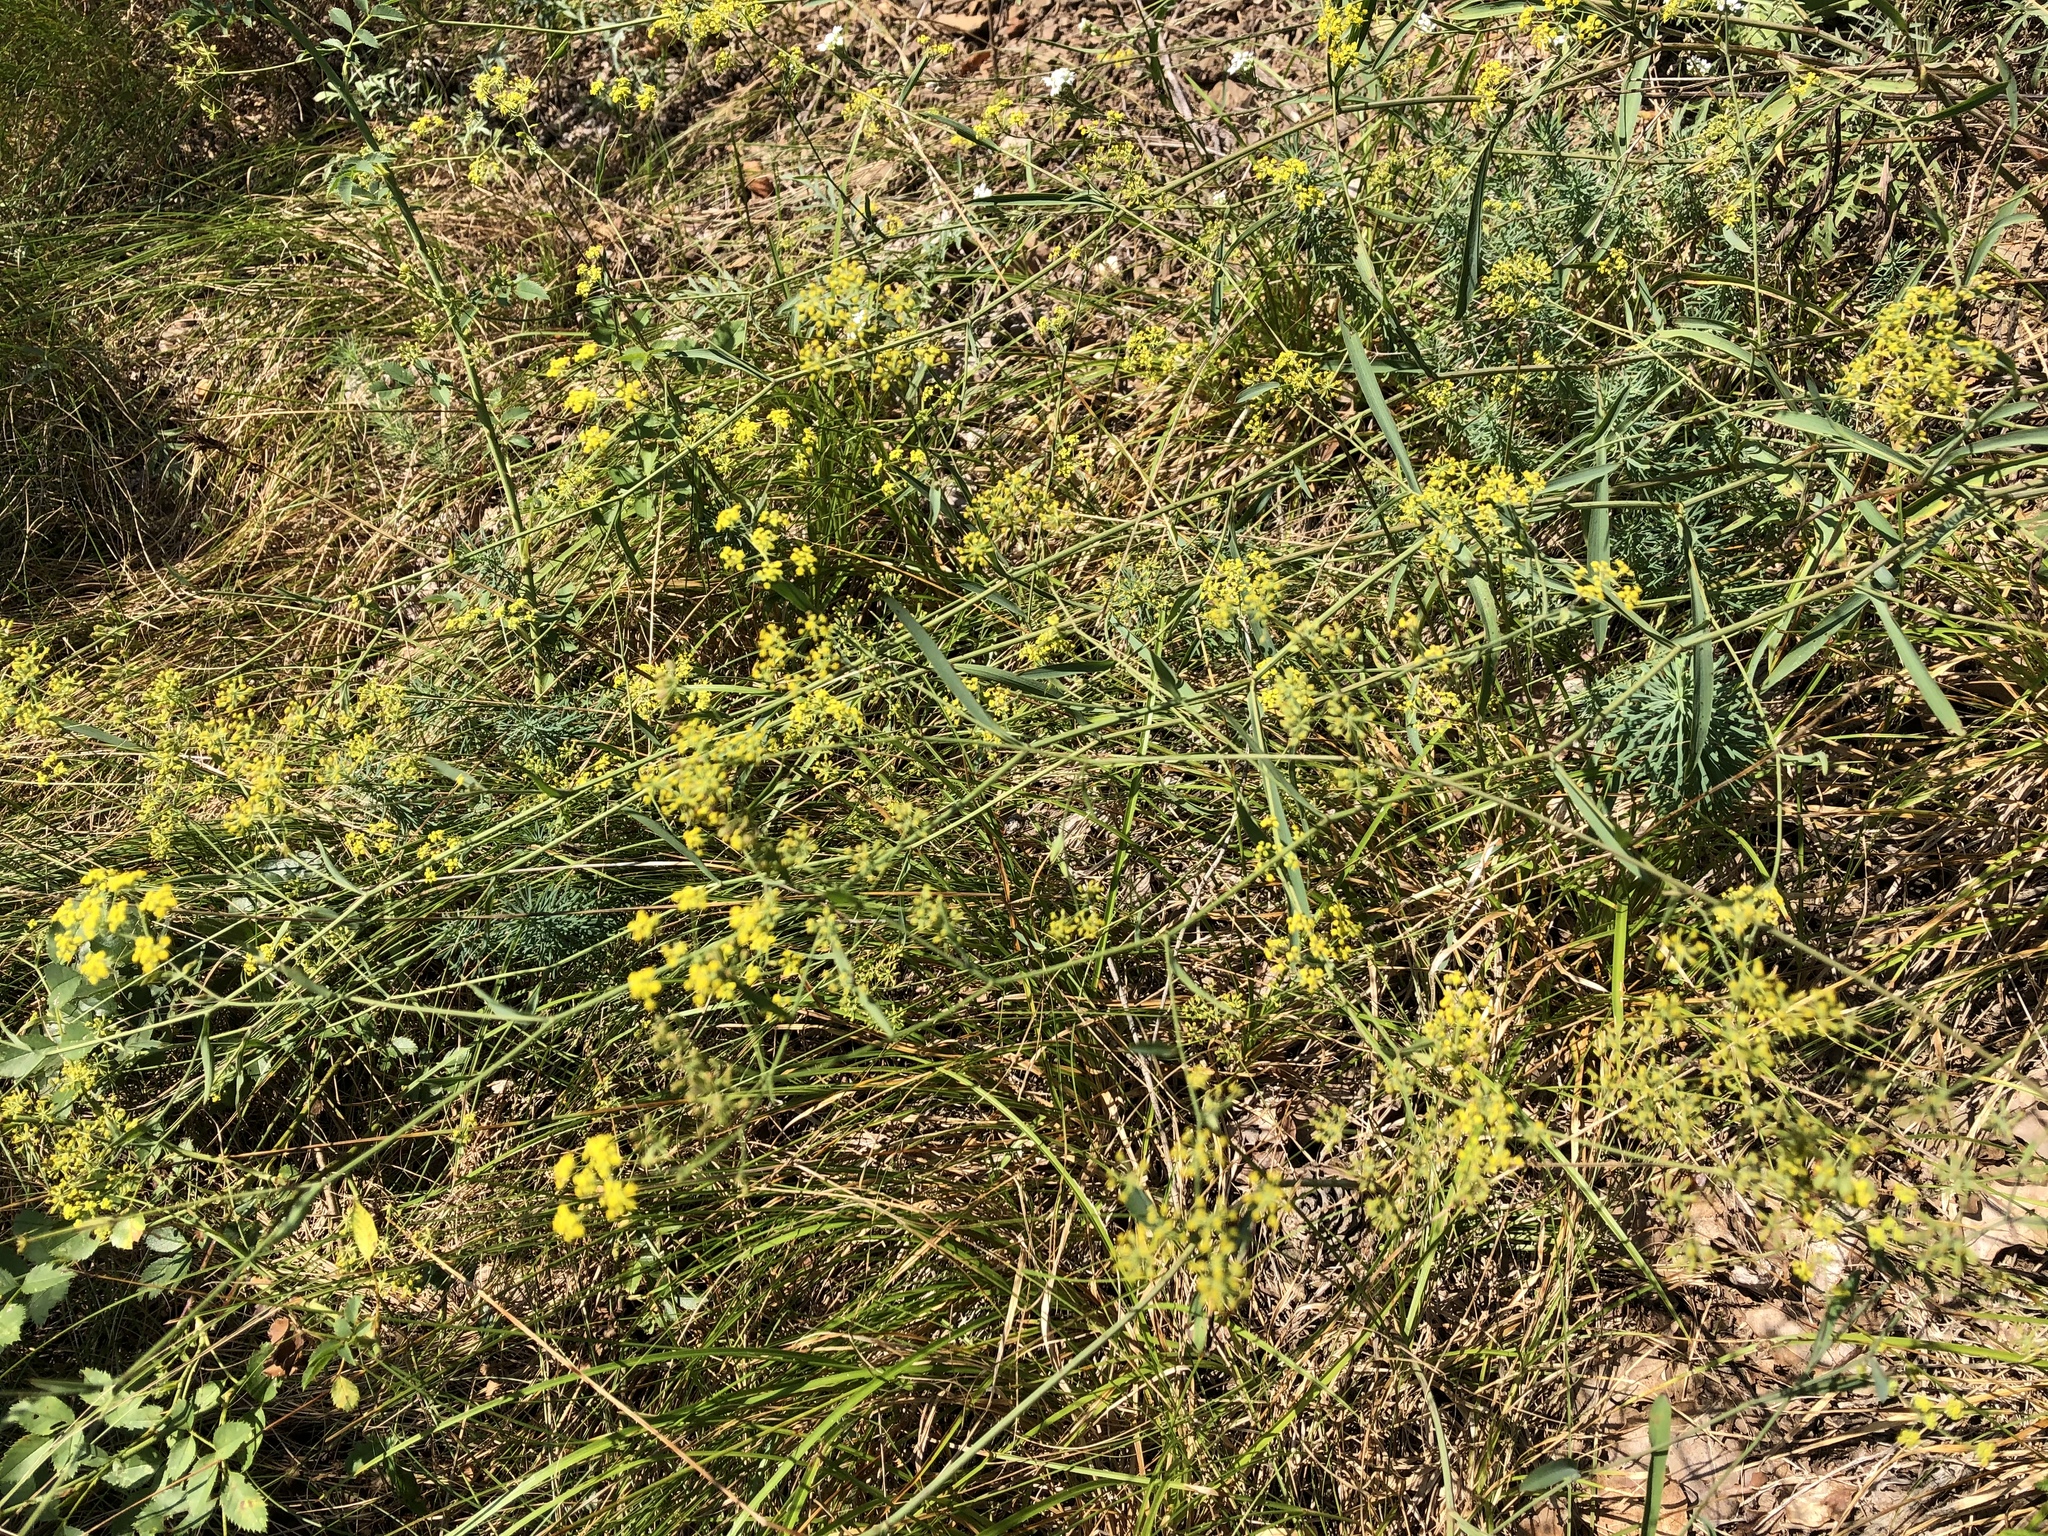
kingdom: Plantae
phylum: Tracheophyta
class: Magnoliopsida
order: Apiales
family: Apiaceae
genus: Bupleurum
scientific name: Bupleurum falcatum
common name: Sickle-leaved hare's-ear
